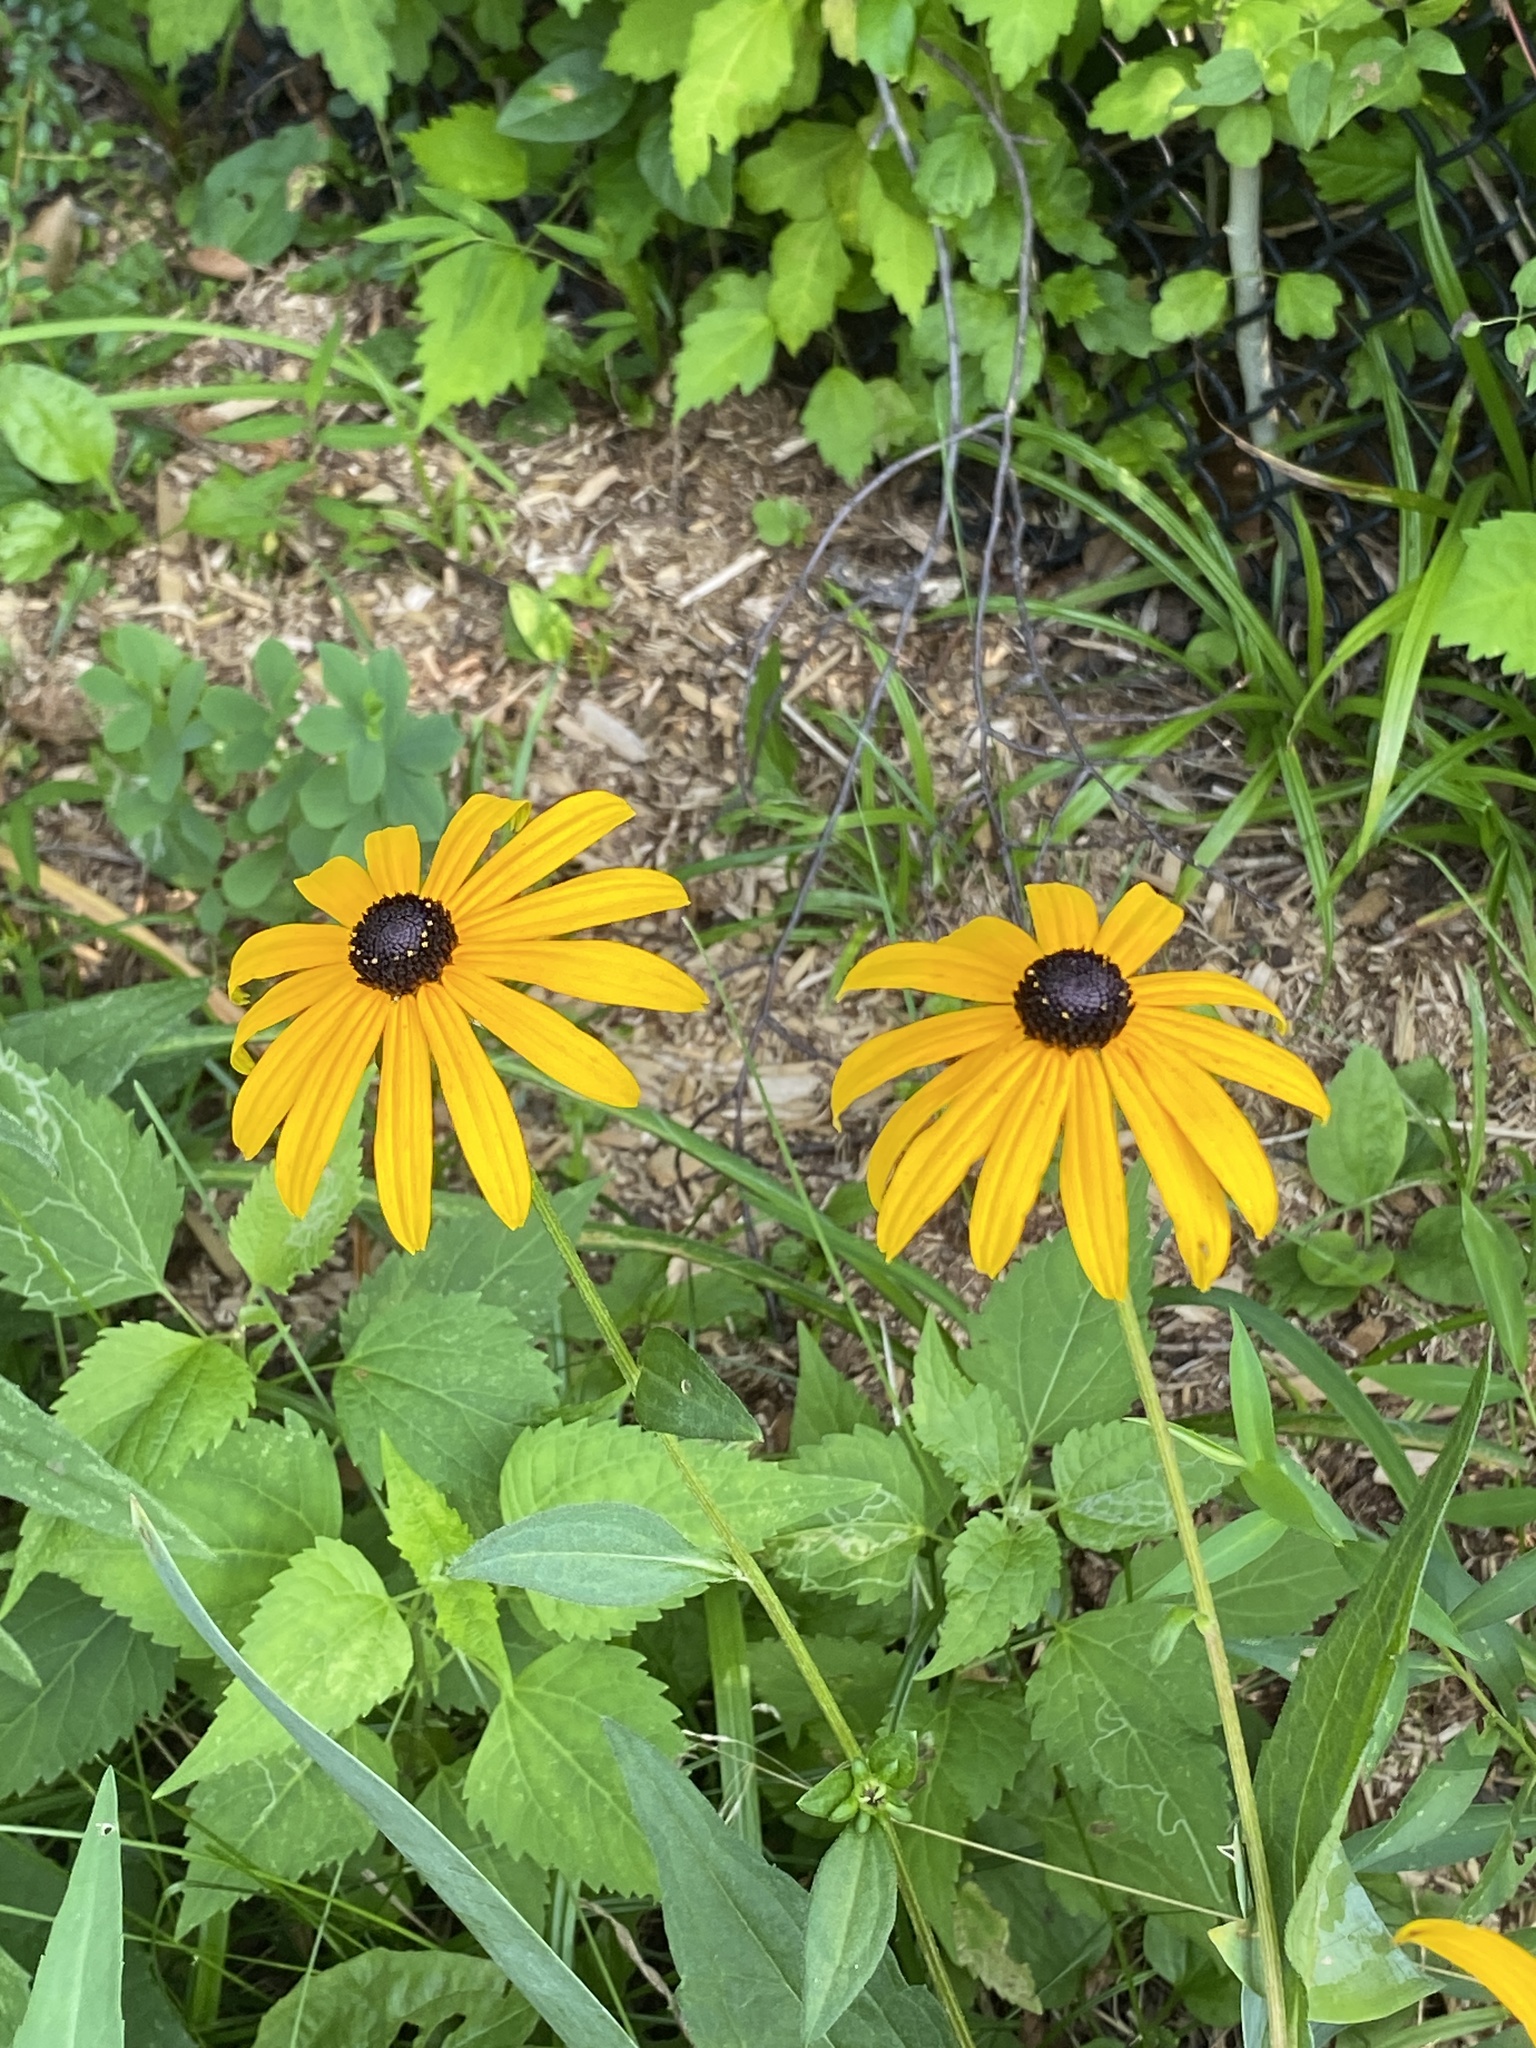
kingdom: Plantae
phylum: Tracheophyta
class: Magnoliopsida
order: Asterales
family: Asteraceae
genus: Rudbeckia
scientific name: Rudbeckia hirta
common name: Black-eyed-susan
